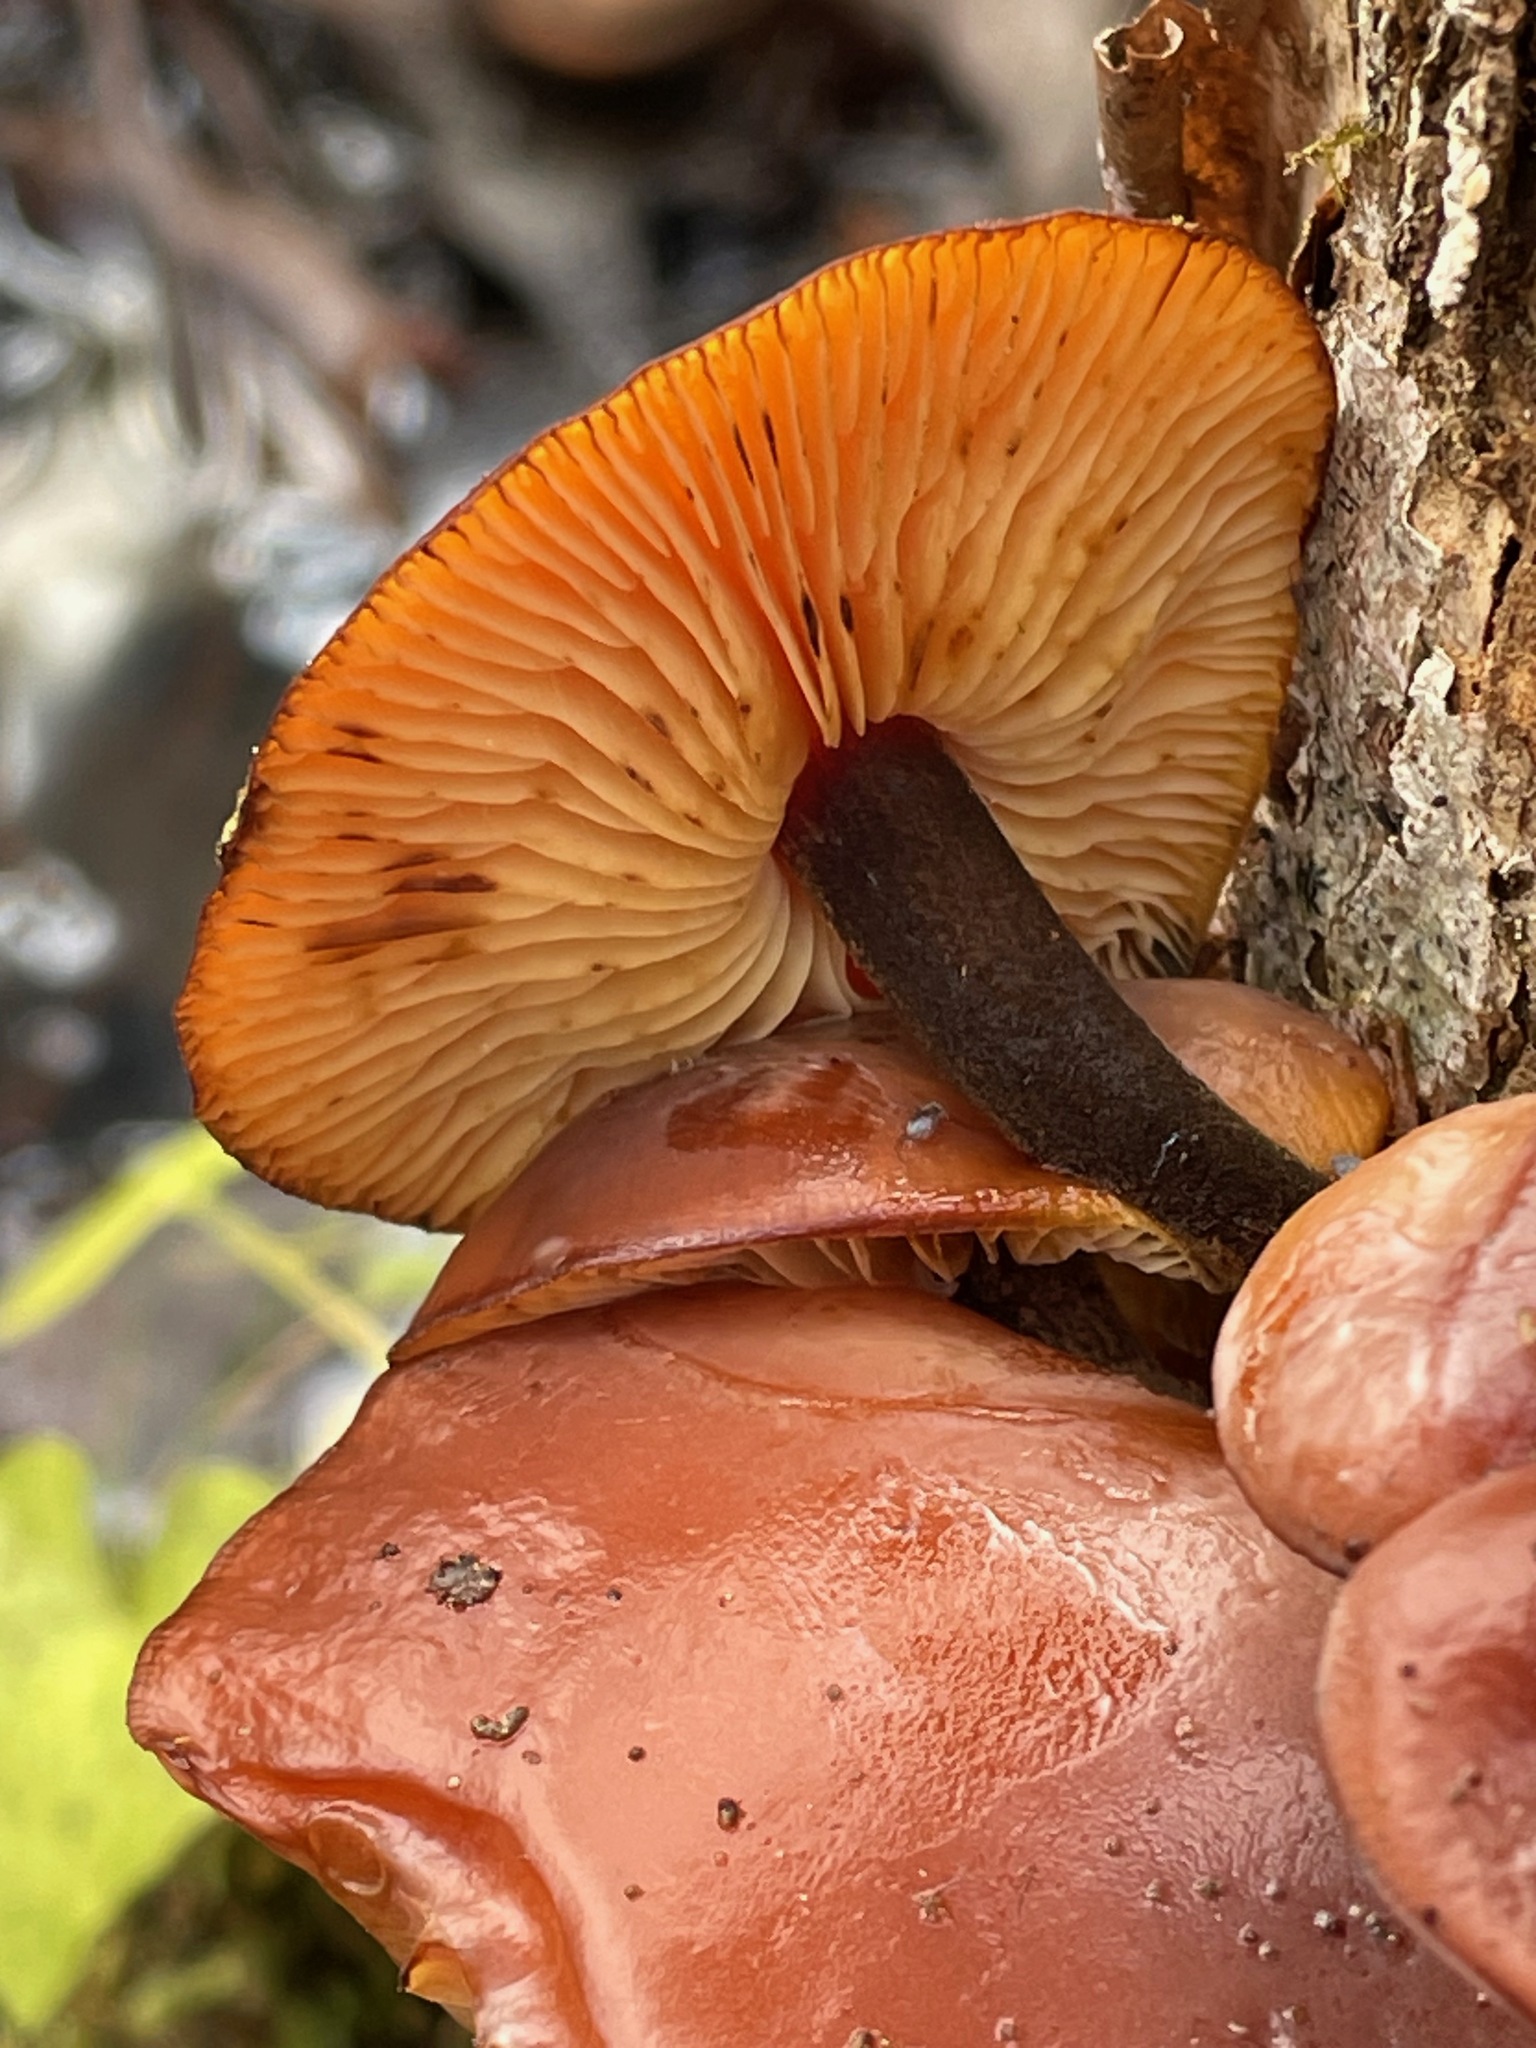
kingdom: Fungi
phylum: Basidiomycota
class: Agaricomycetes
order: Agaricales
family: Physalacriaceae
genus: Flammulina
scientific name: Flammulina velutipes
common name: Velvet shank
